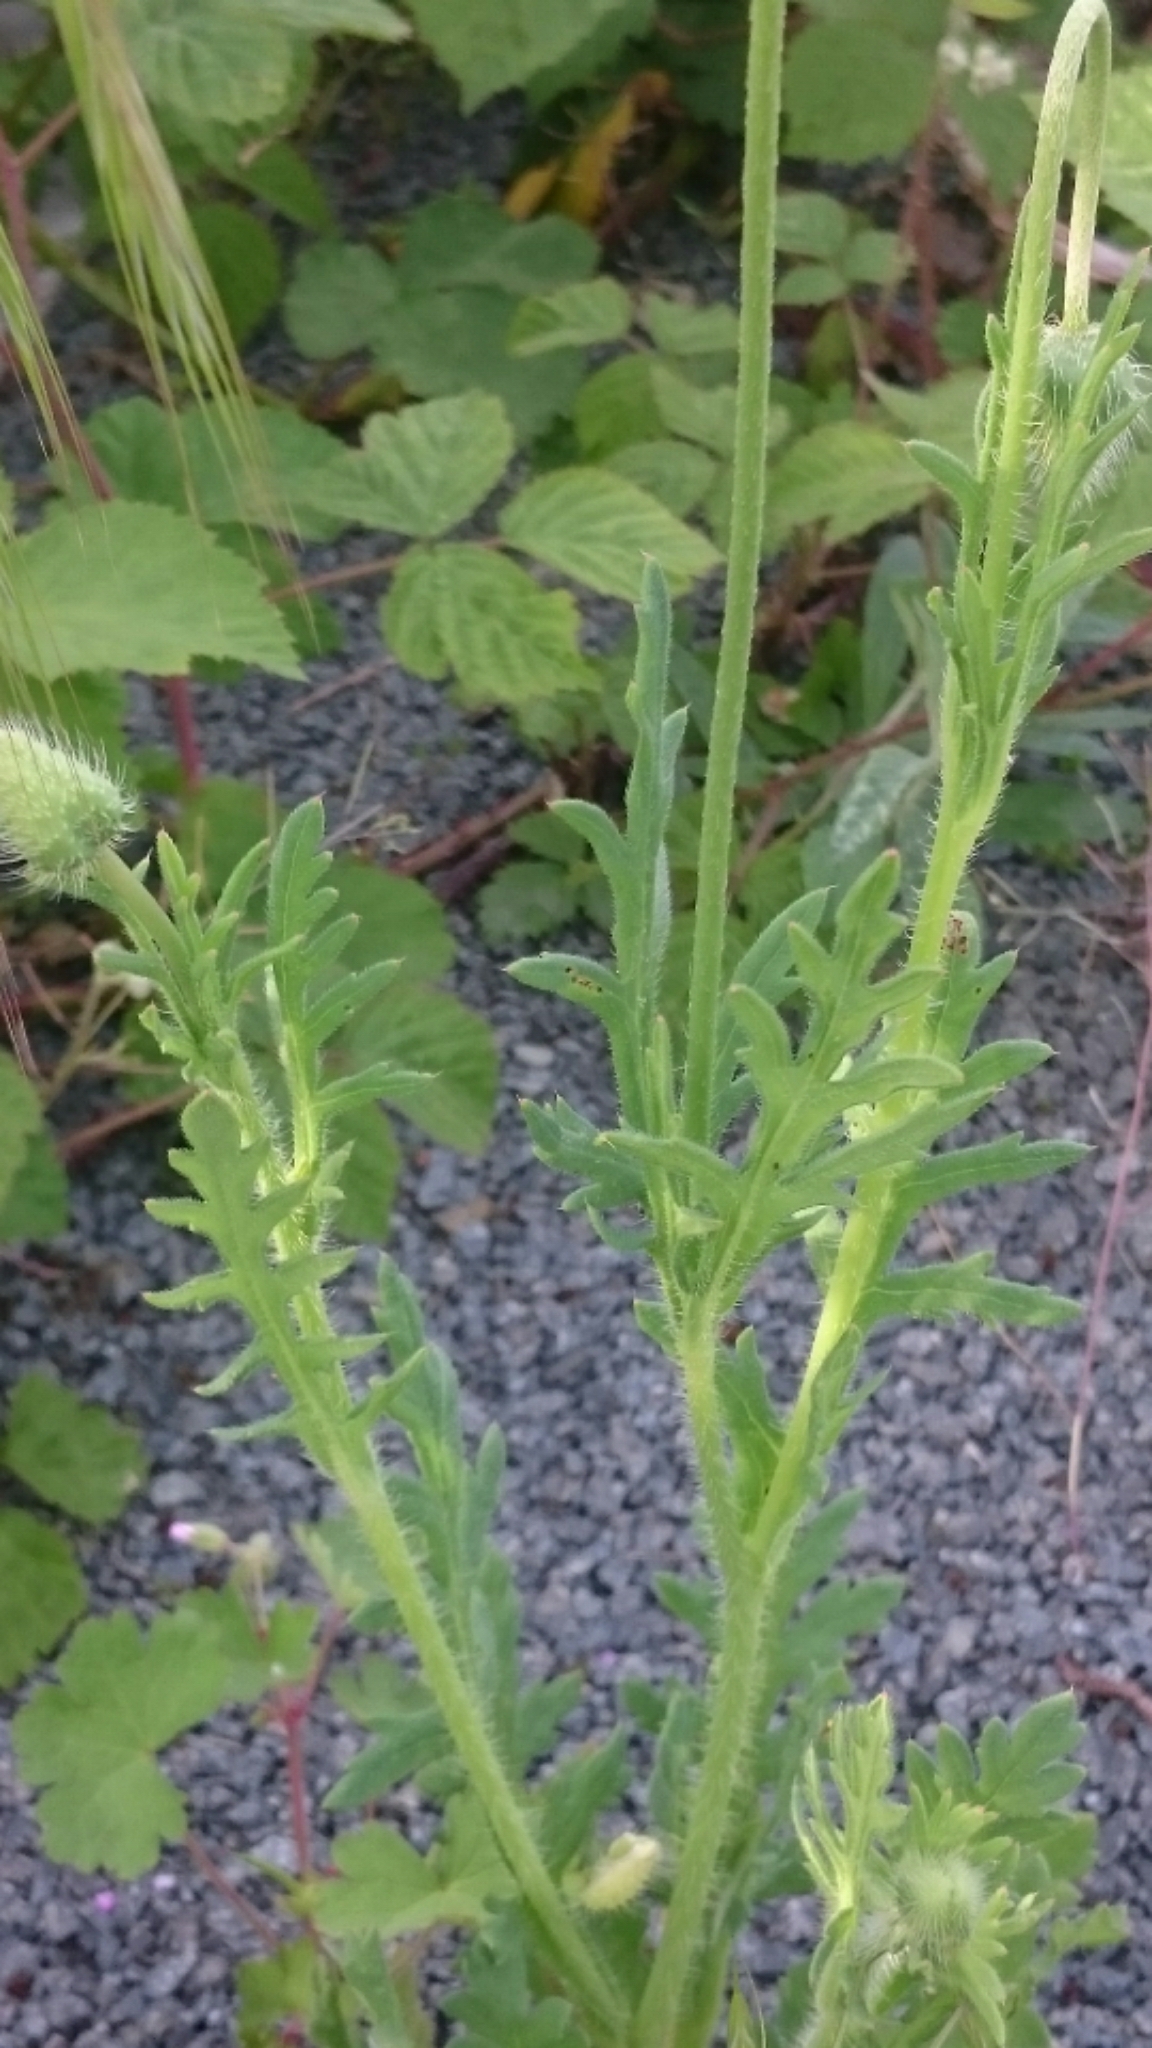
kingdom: Plantae
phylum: Tracheophyta
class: Magnoliopsida
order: Ranunculales
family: Papaveraceae
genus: Papaver
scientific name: Papaver dubium
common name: Long-headed poppy
